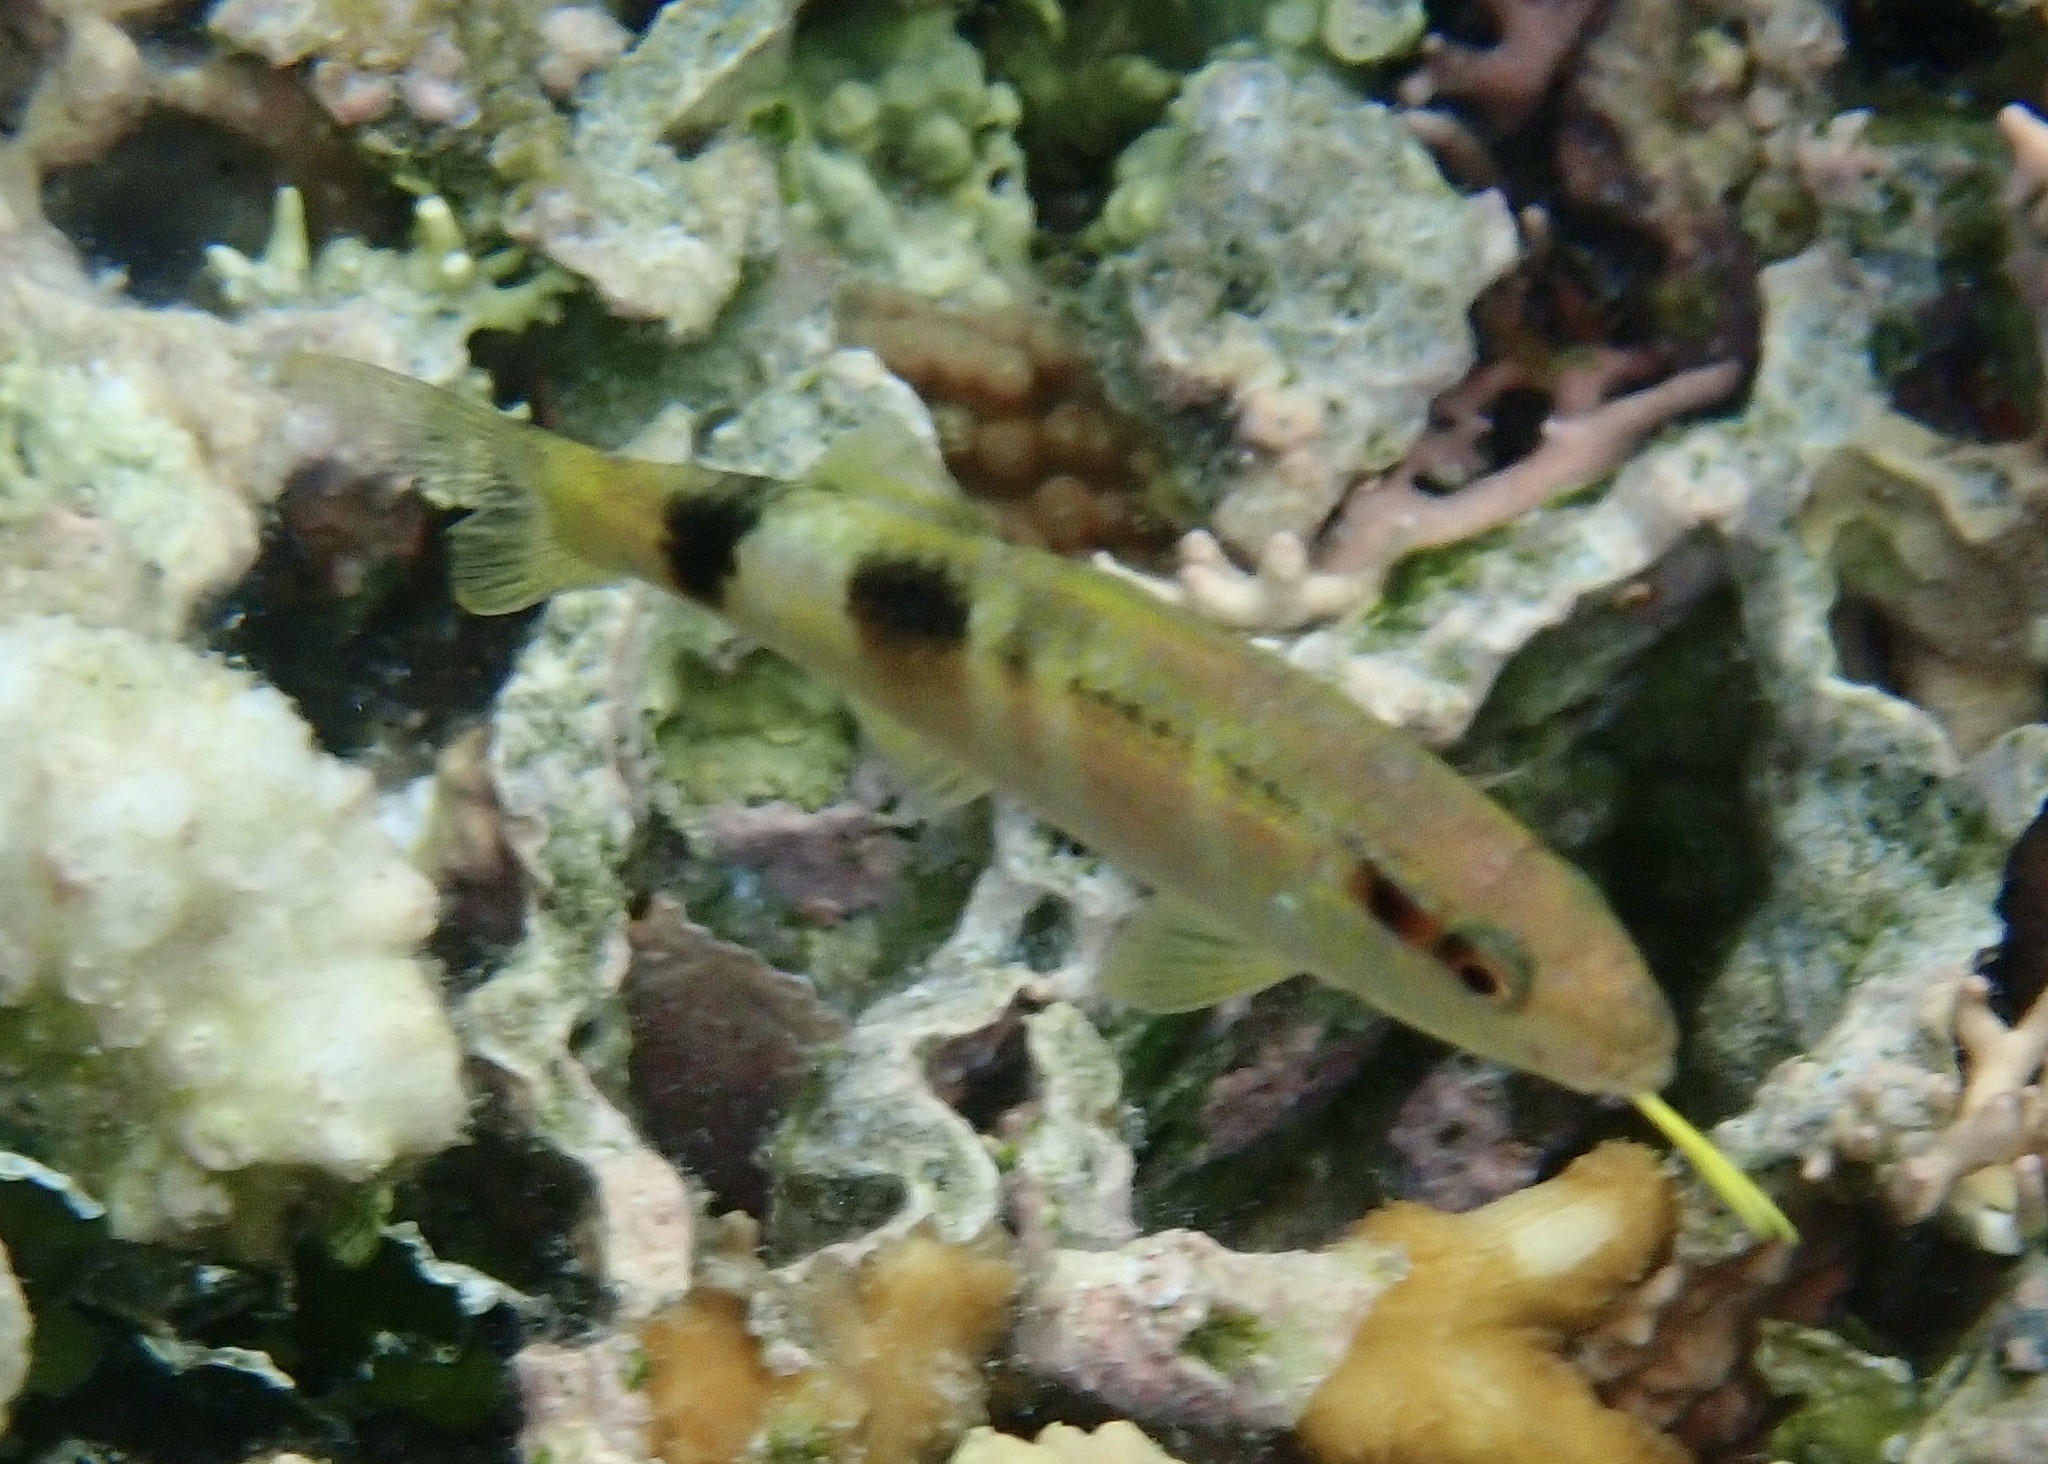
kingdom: Animalia
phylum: Chordata
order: Perciformes
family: Mullidae
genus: Parupeneus
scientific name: Parupeneus multifasciatus
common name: Manybar goatfish
